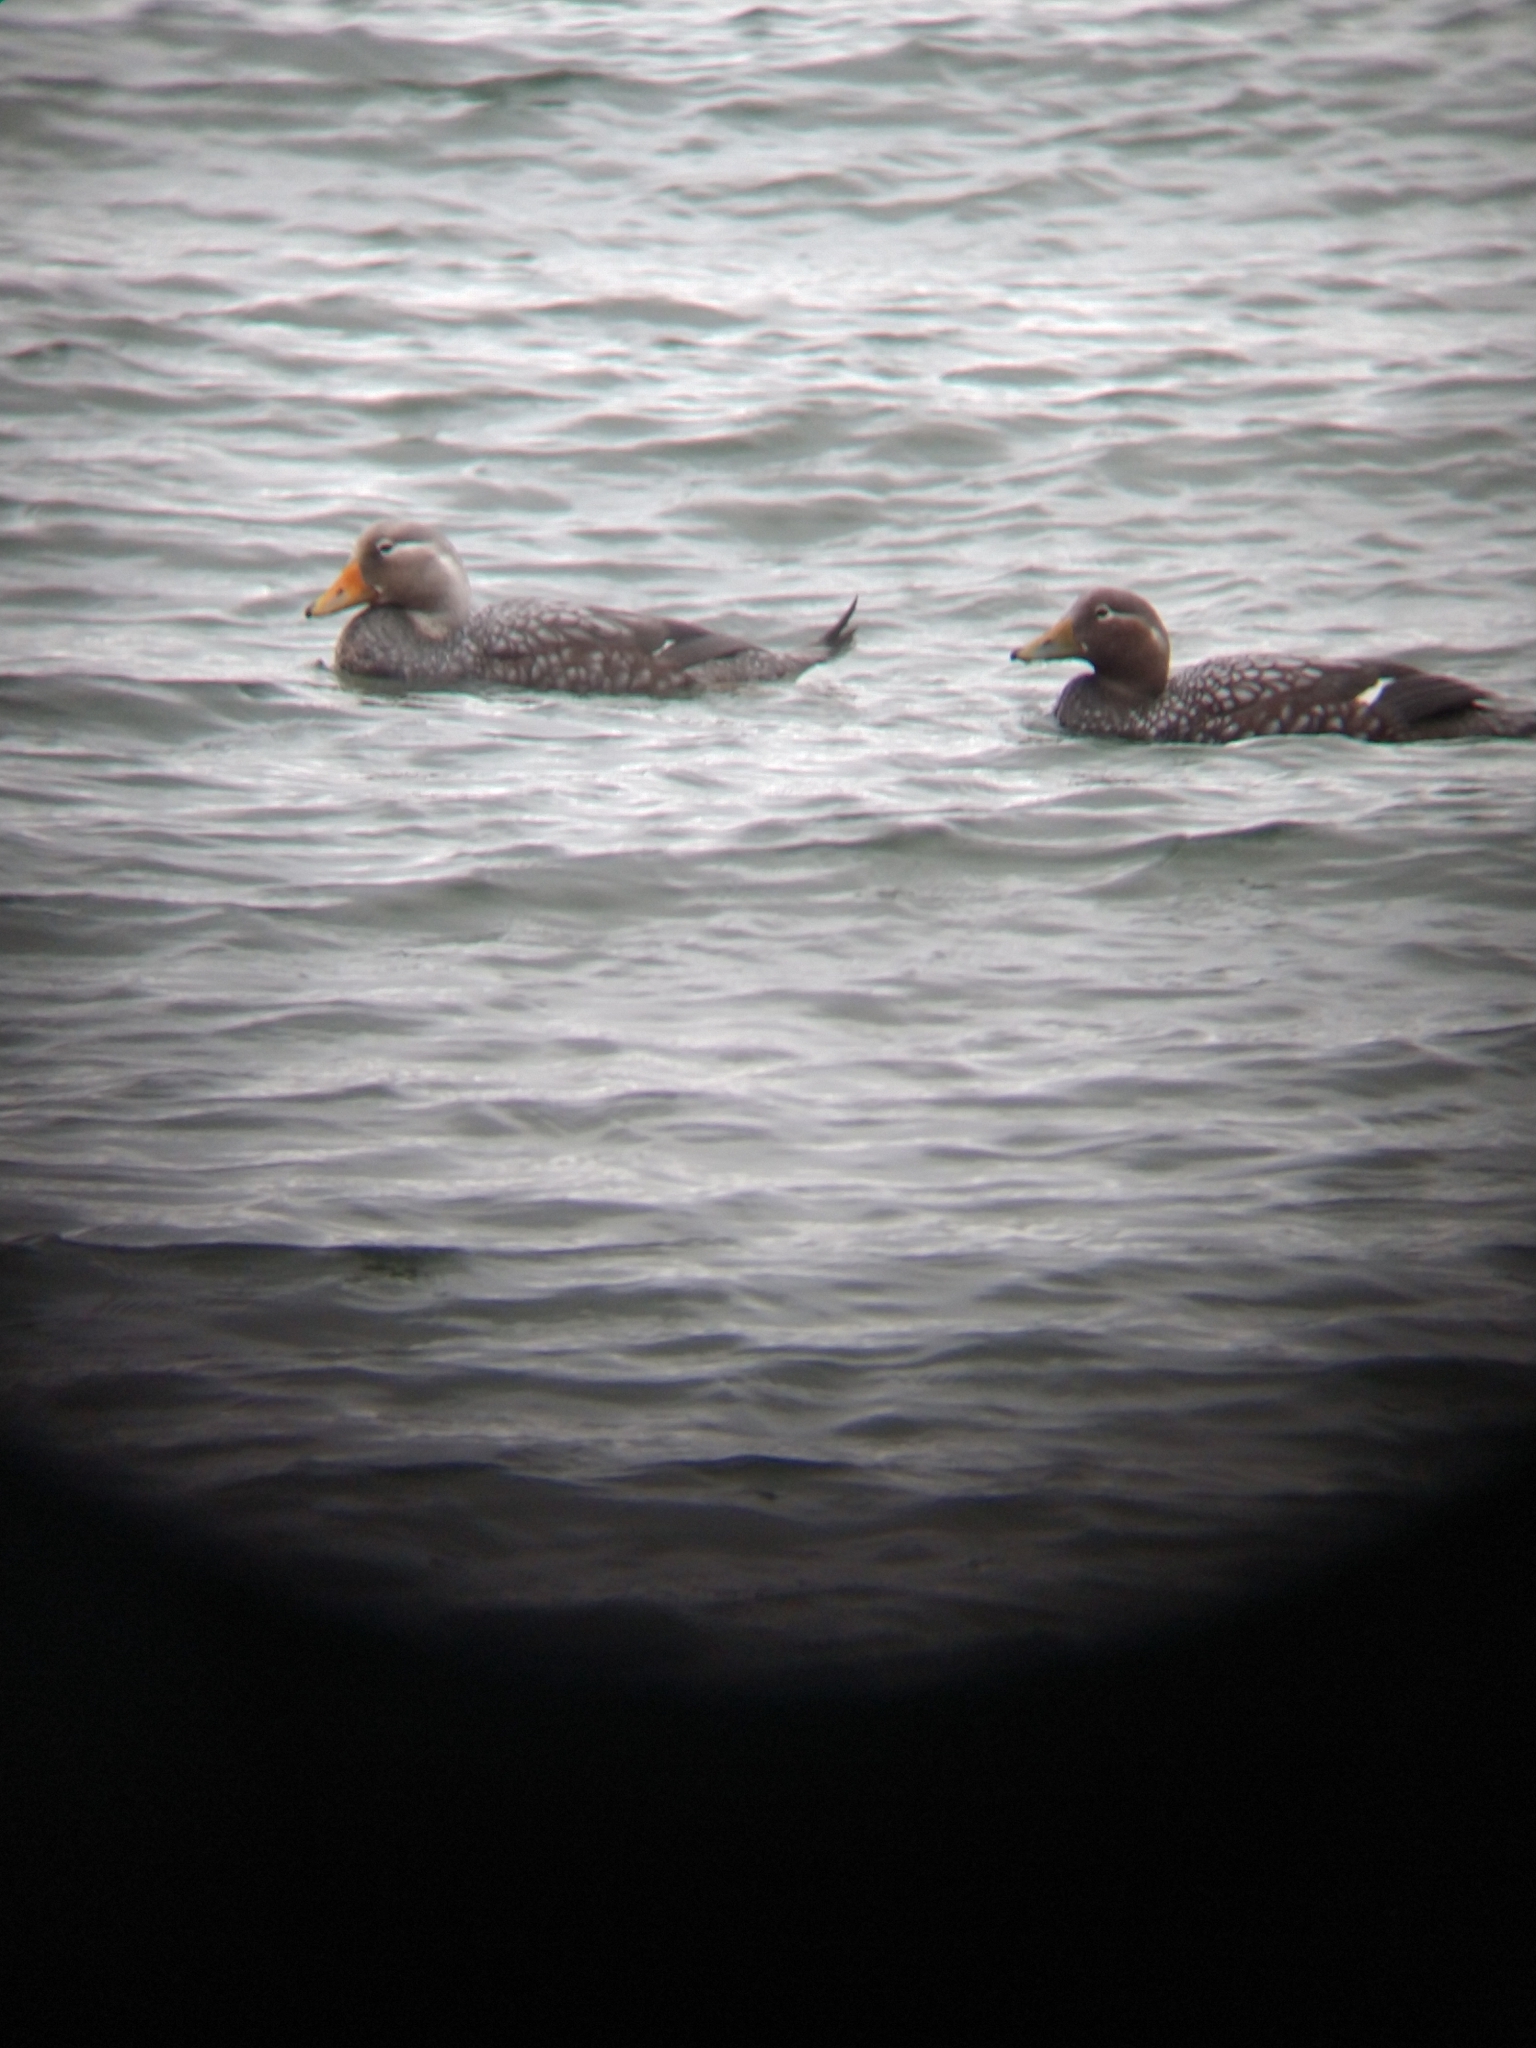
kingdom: Animalia
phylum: Chordata
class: Aves
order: Anseriformes
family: Anatidae
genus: Tachyeres
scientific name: Tachyeres patachonicus
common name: Flying steamer duck
